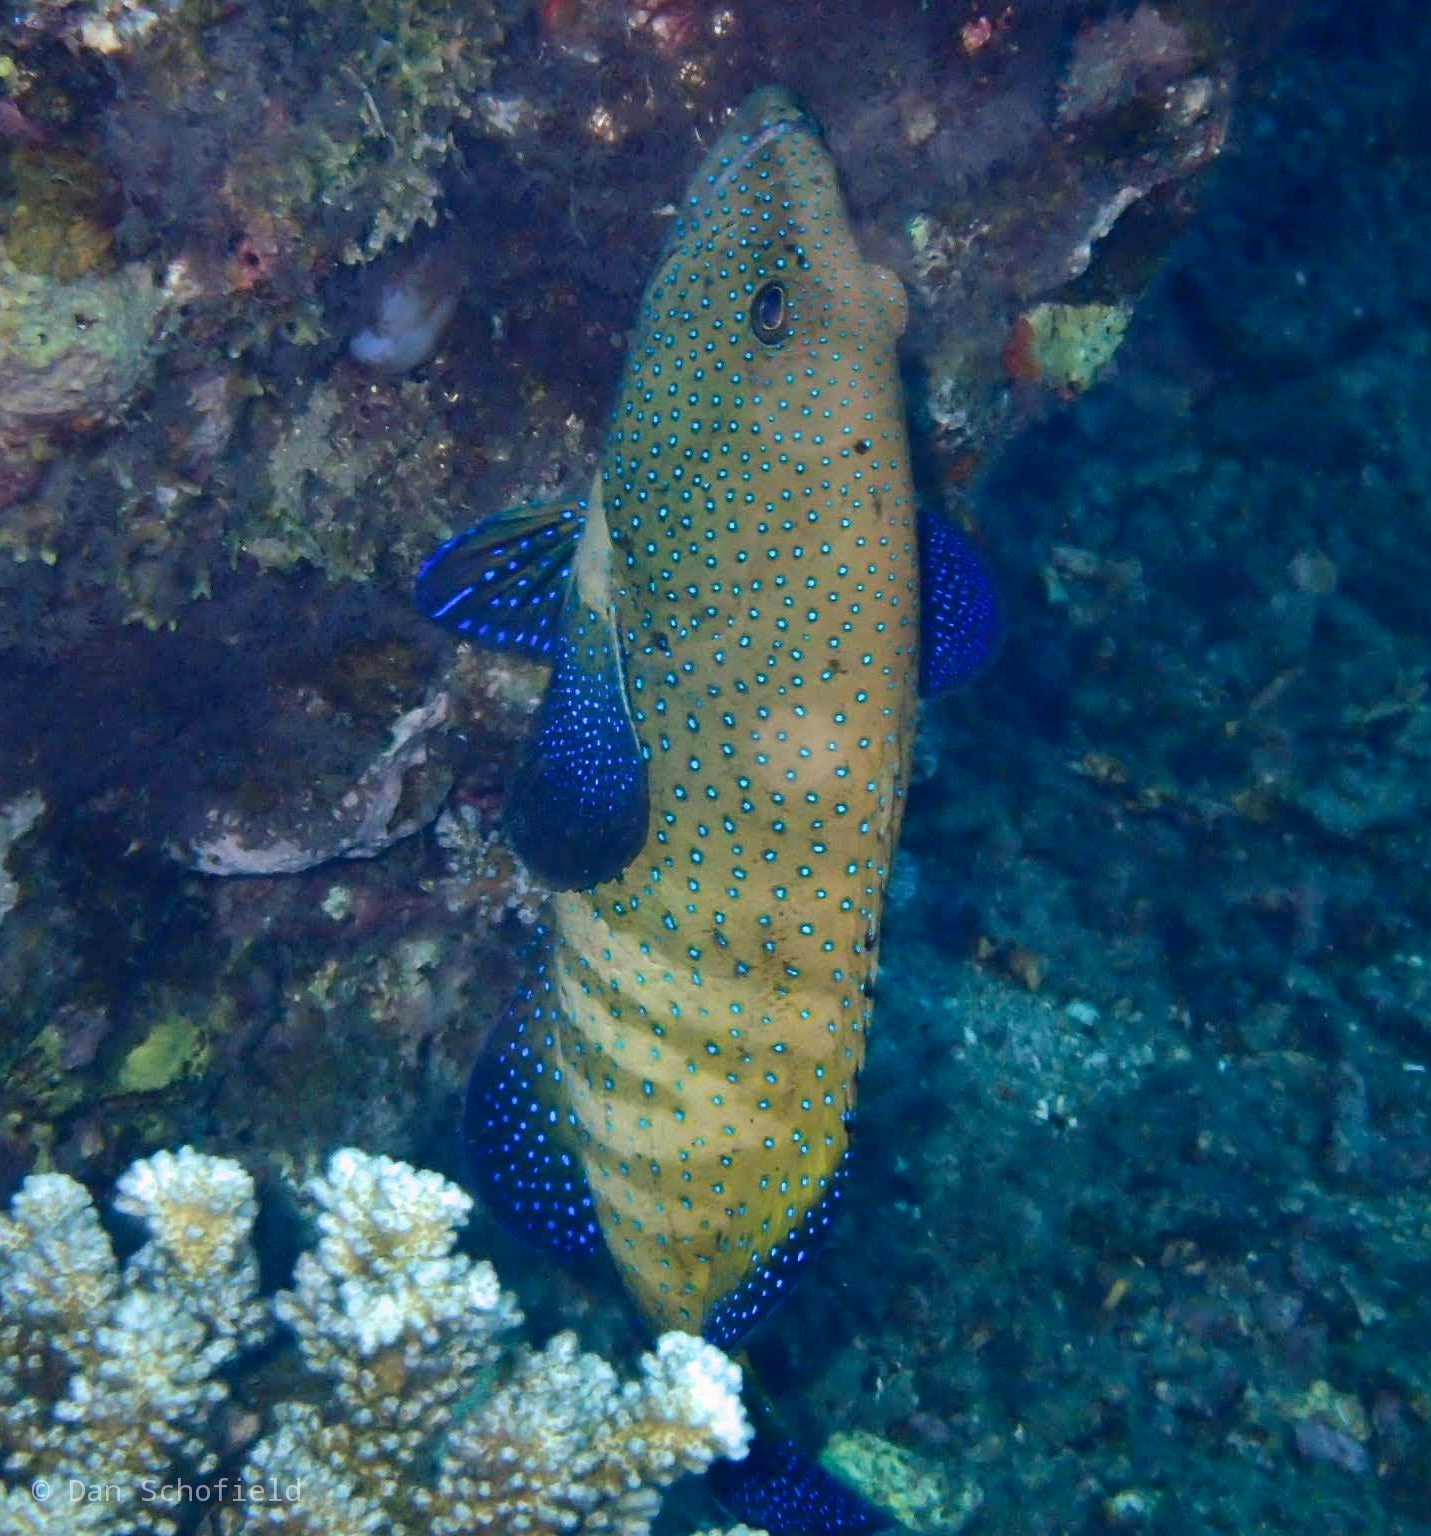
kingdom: Animalia
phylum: Chordata
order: Perciformes
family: Serranidae
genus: Cephalopholis
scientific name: Cephalopholis argus
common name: Peacock grouper
